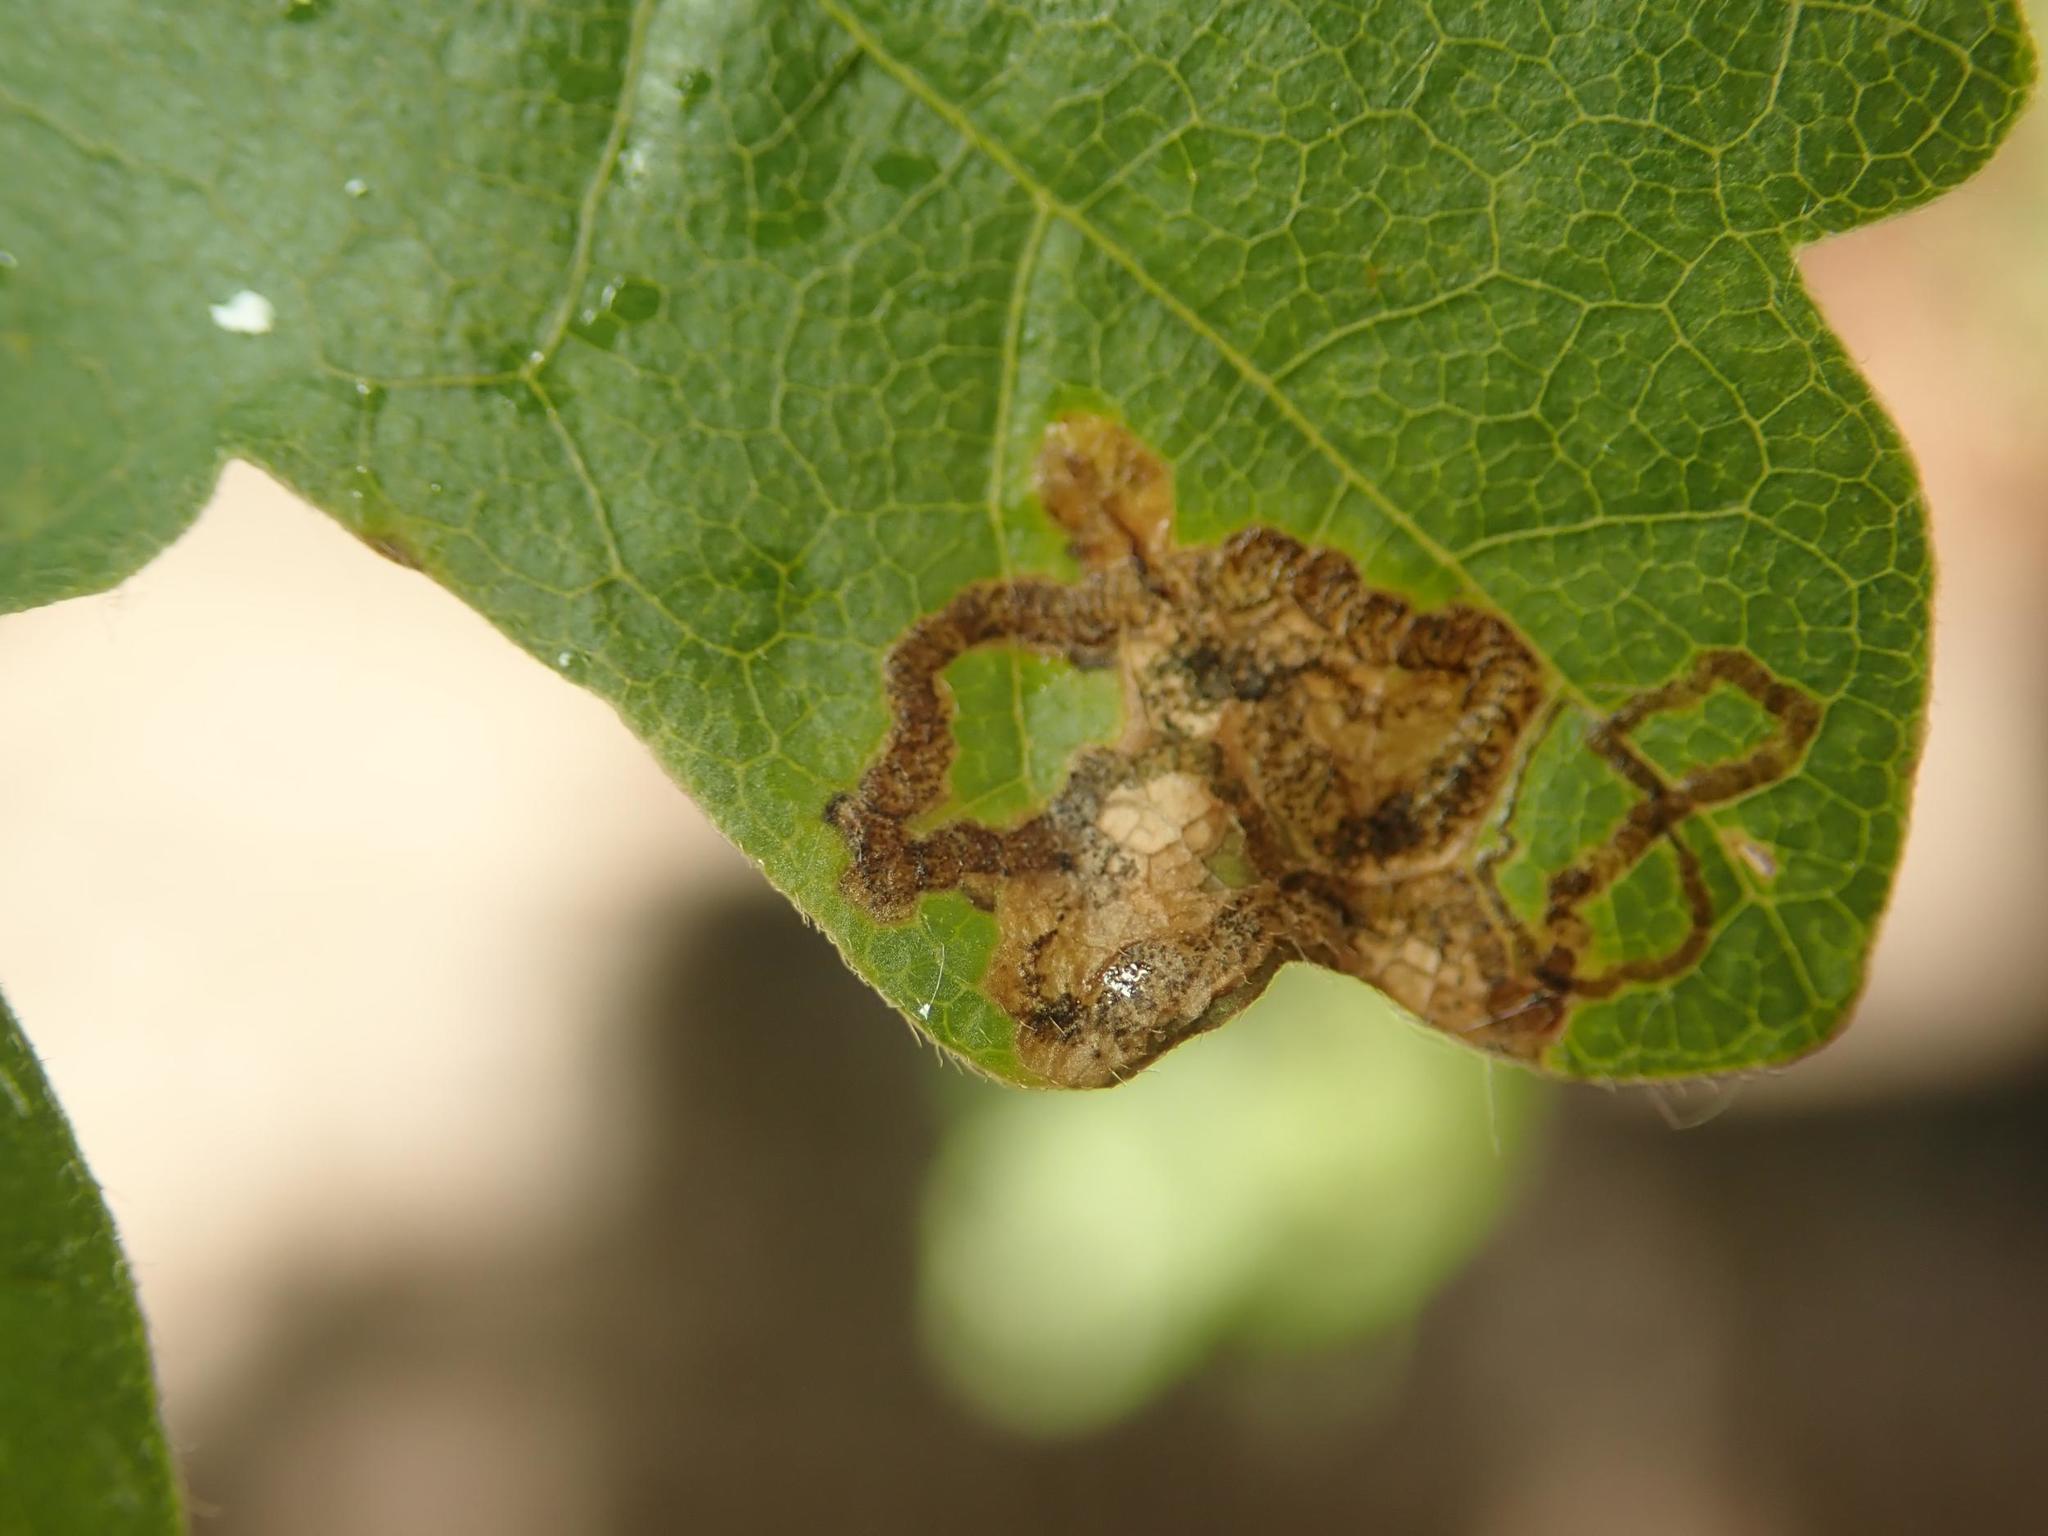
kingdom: Animalia
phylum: Arthropoda
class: Insecta
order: Lepidoptera
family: Nepticulidae
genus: Stigmella
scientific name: Stigmella aceris
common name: Scarce maple pigmy
